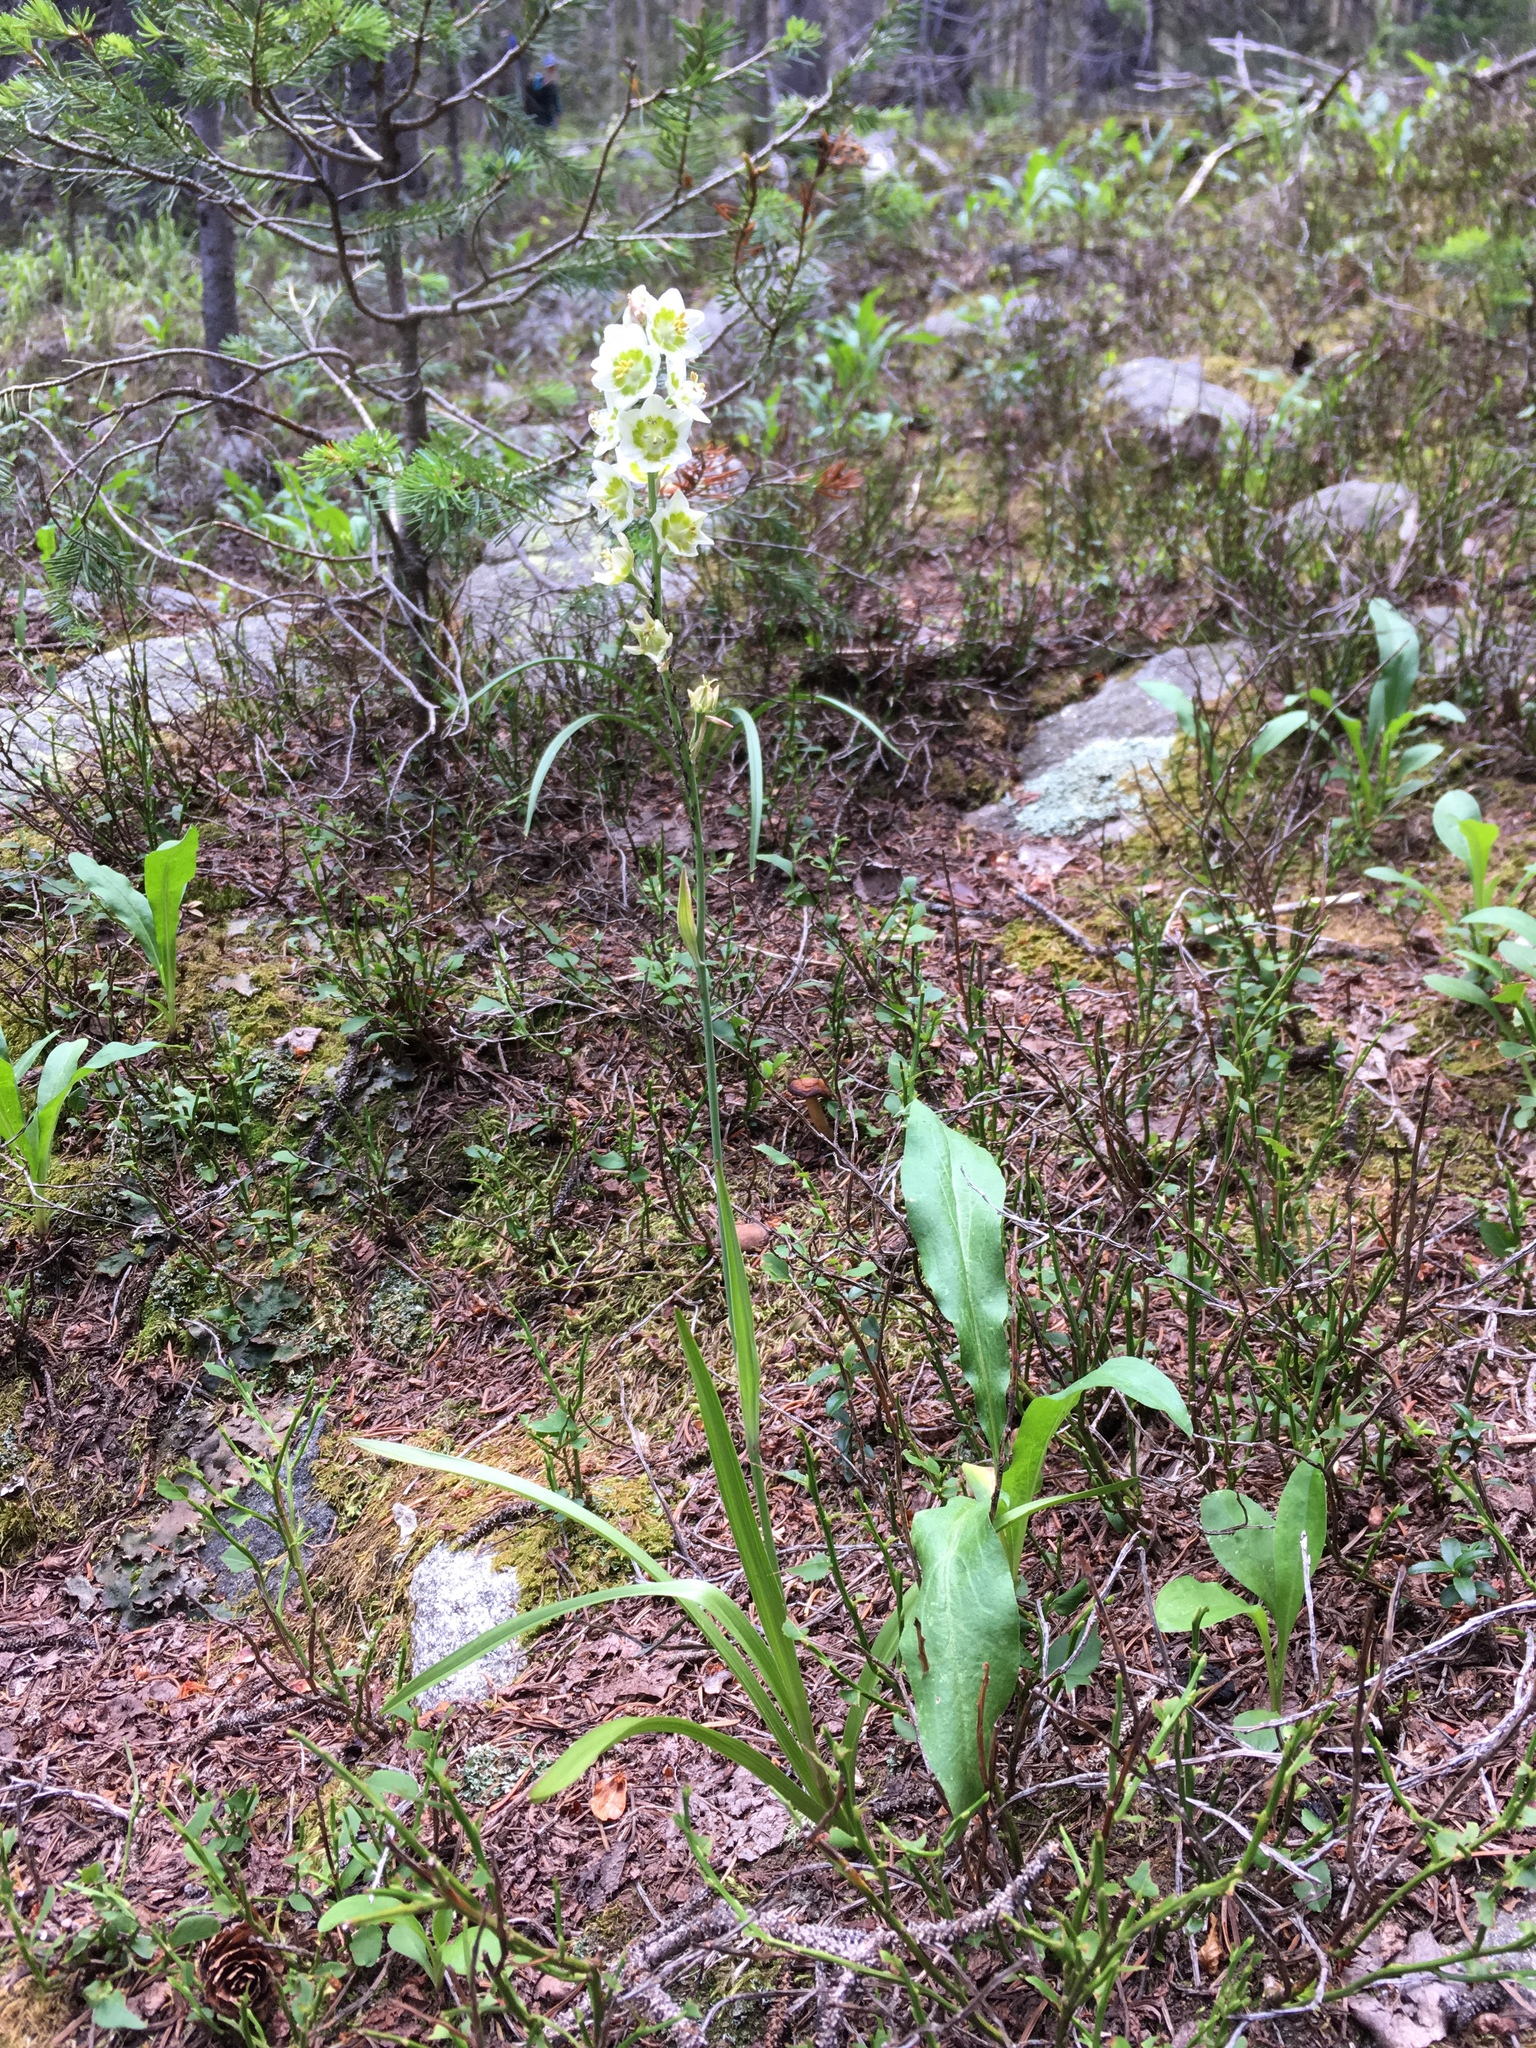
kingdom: Plantae
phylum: Tracheophyta
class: Liliopsida
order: Liliales
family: Melanthiaceae
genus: Anticlea
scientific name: Anticlea elegans
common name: Mountain death camas
